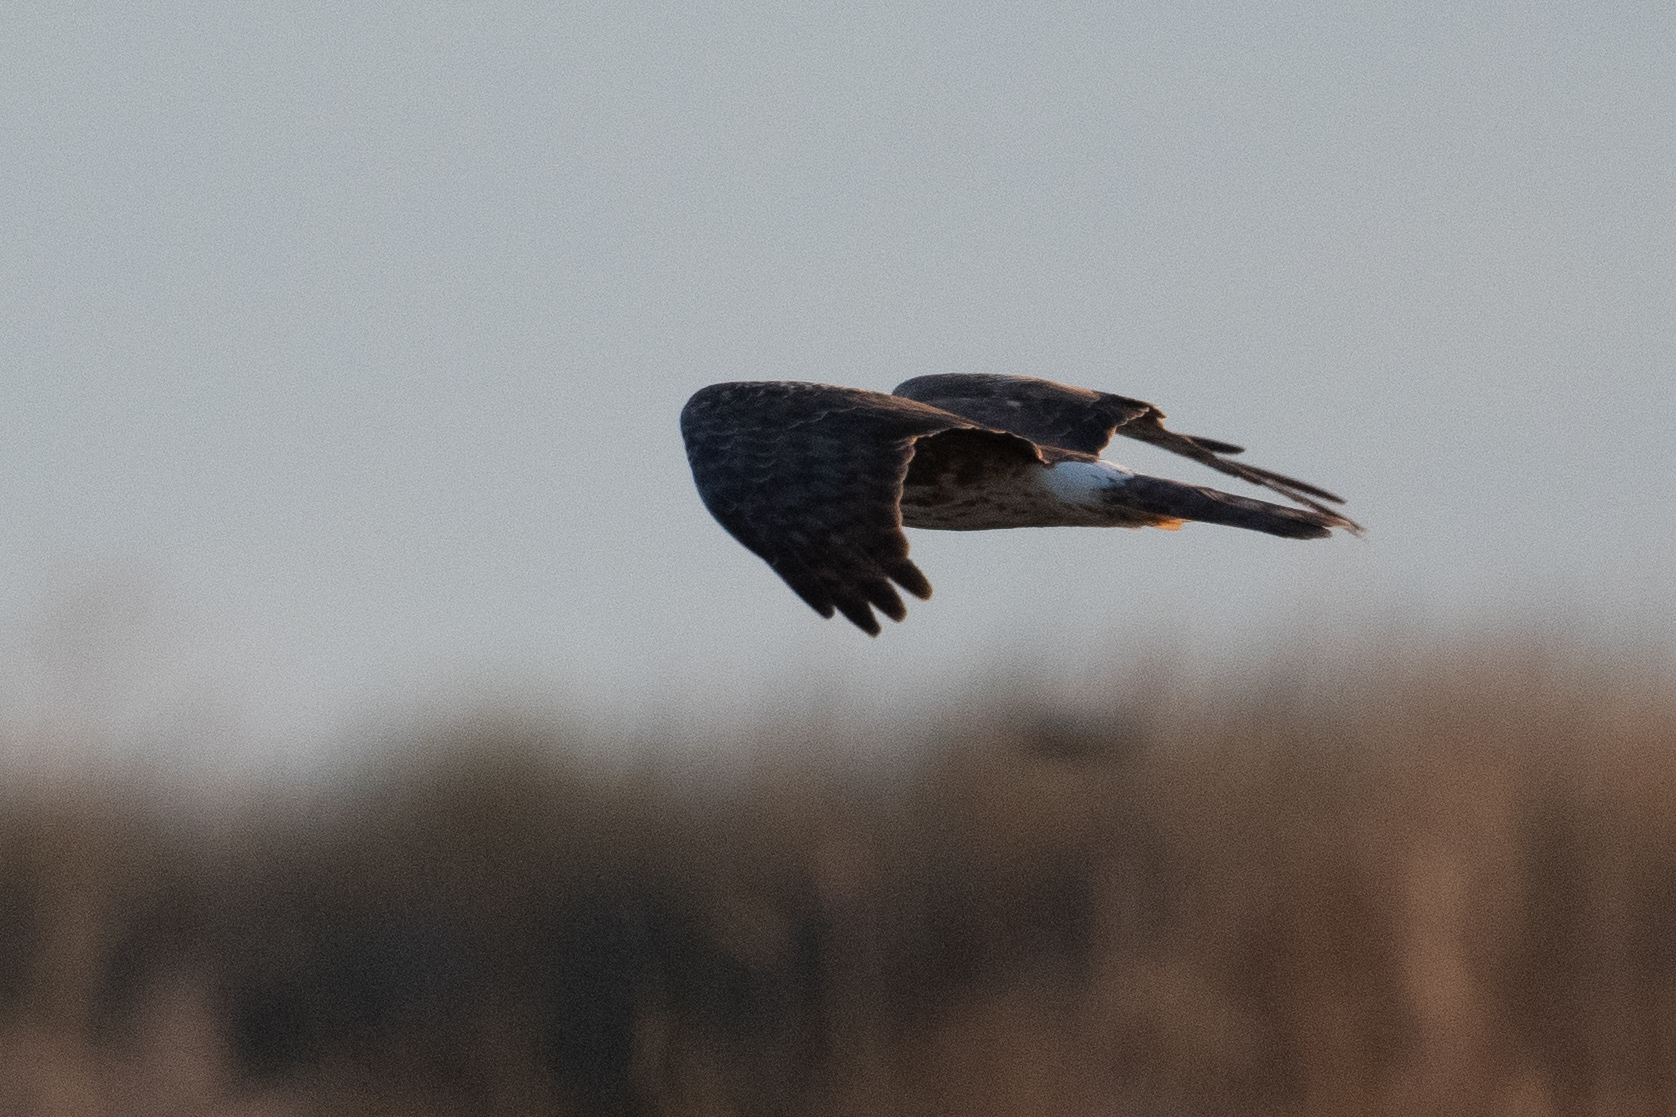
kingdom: Animalia
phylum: Chordata
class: Aves
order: Accipitriformes
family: Accipitridae
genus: Circus
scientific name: Circus cyaneus
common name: Hen harrier
